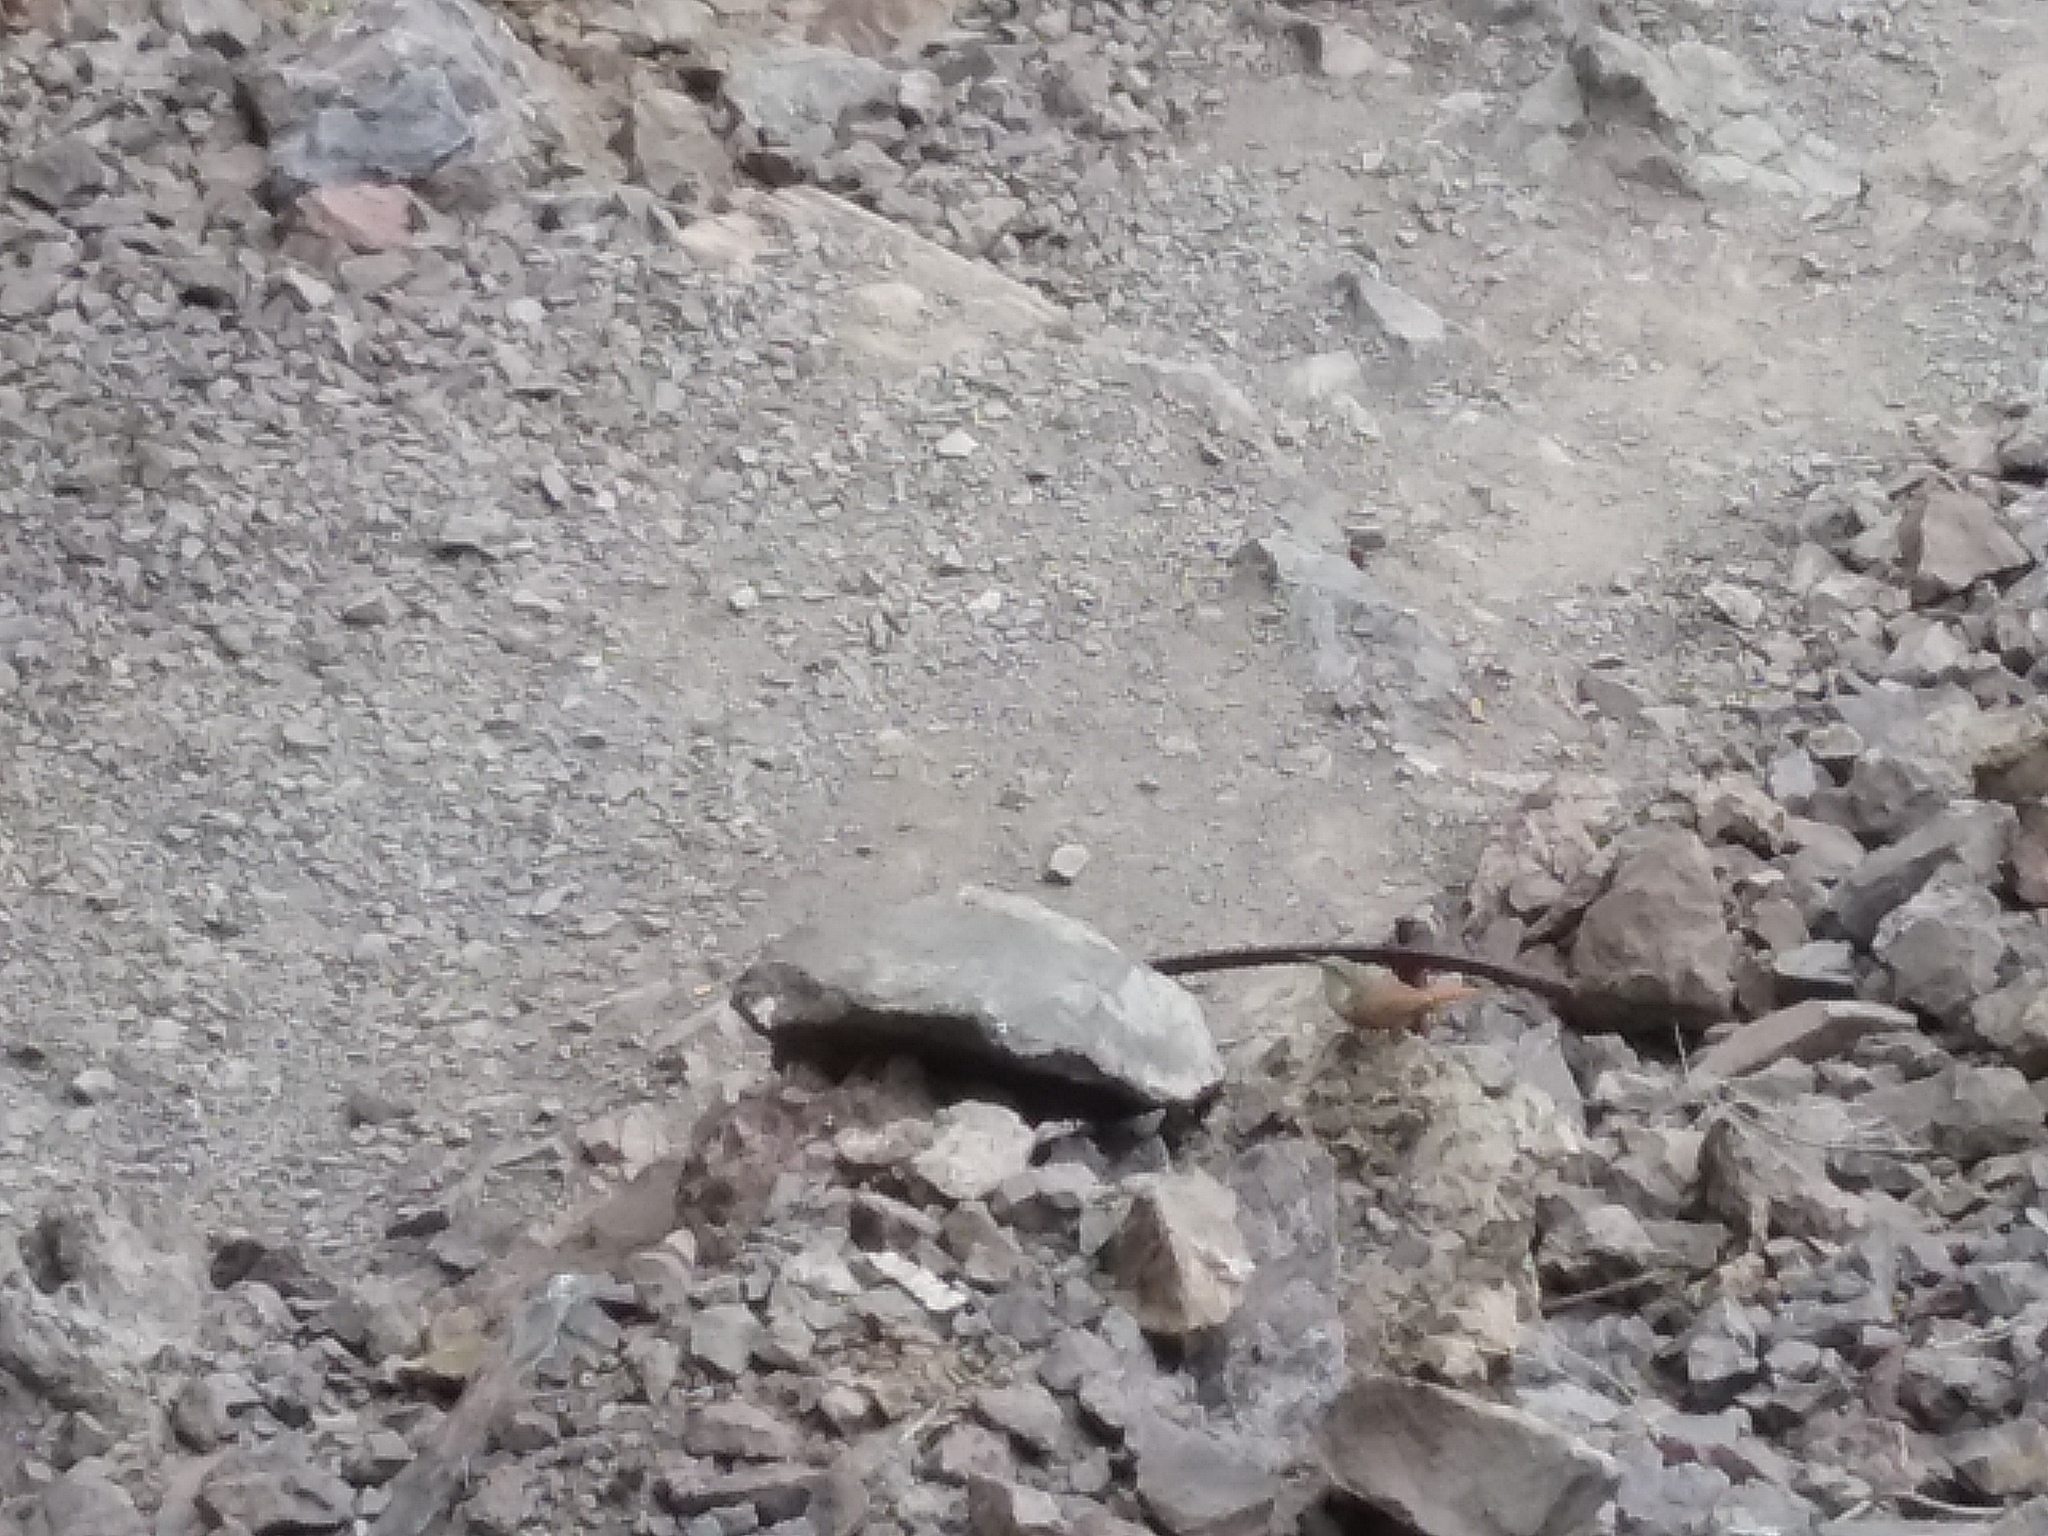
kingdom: Animalia
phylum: Chordata
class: Aves
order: Passeriformes
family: Troglodytidae
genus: Catherpes
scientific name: Catherpes mexicanus
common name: Canyon wren
